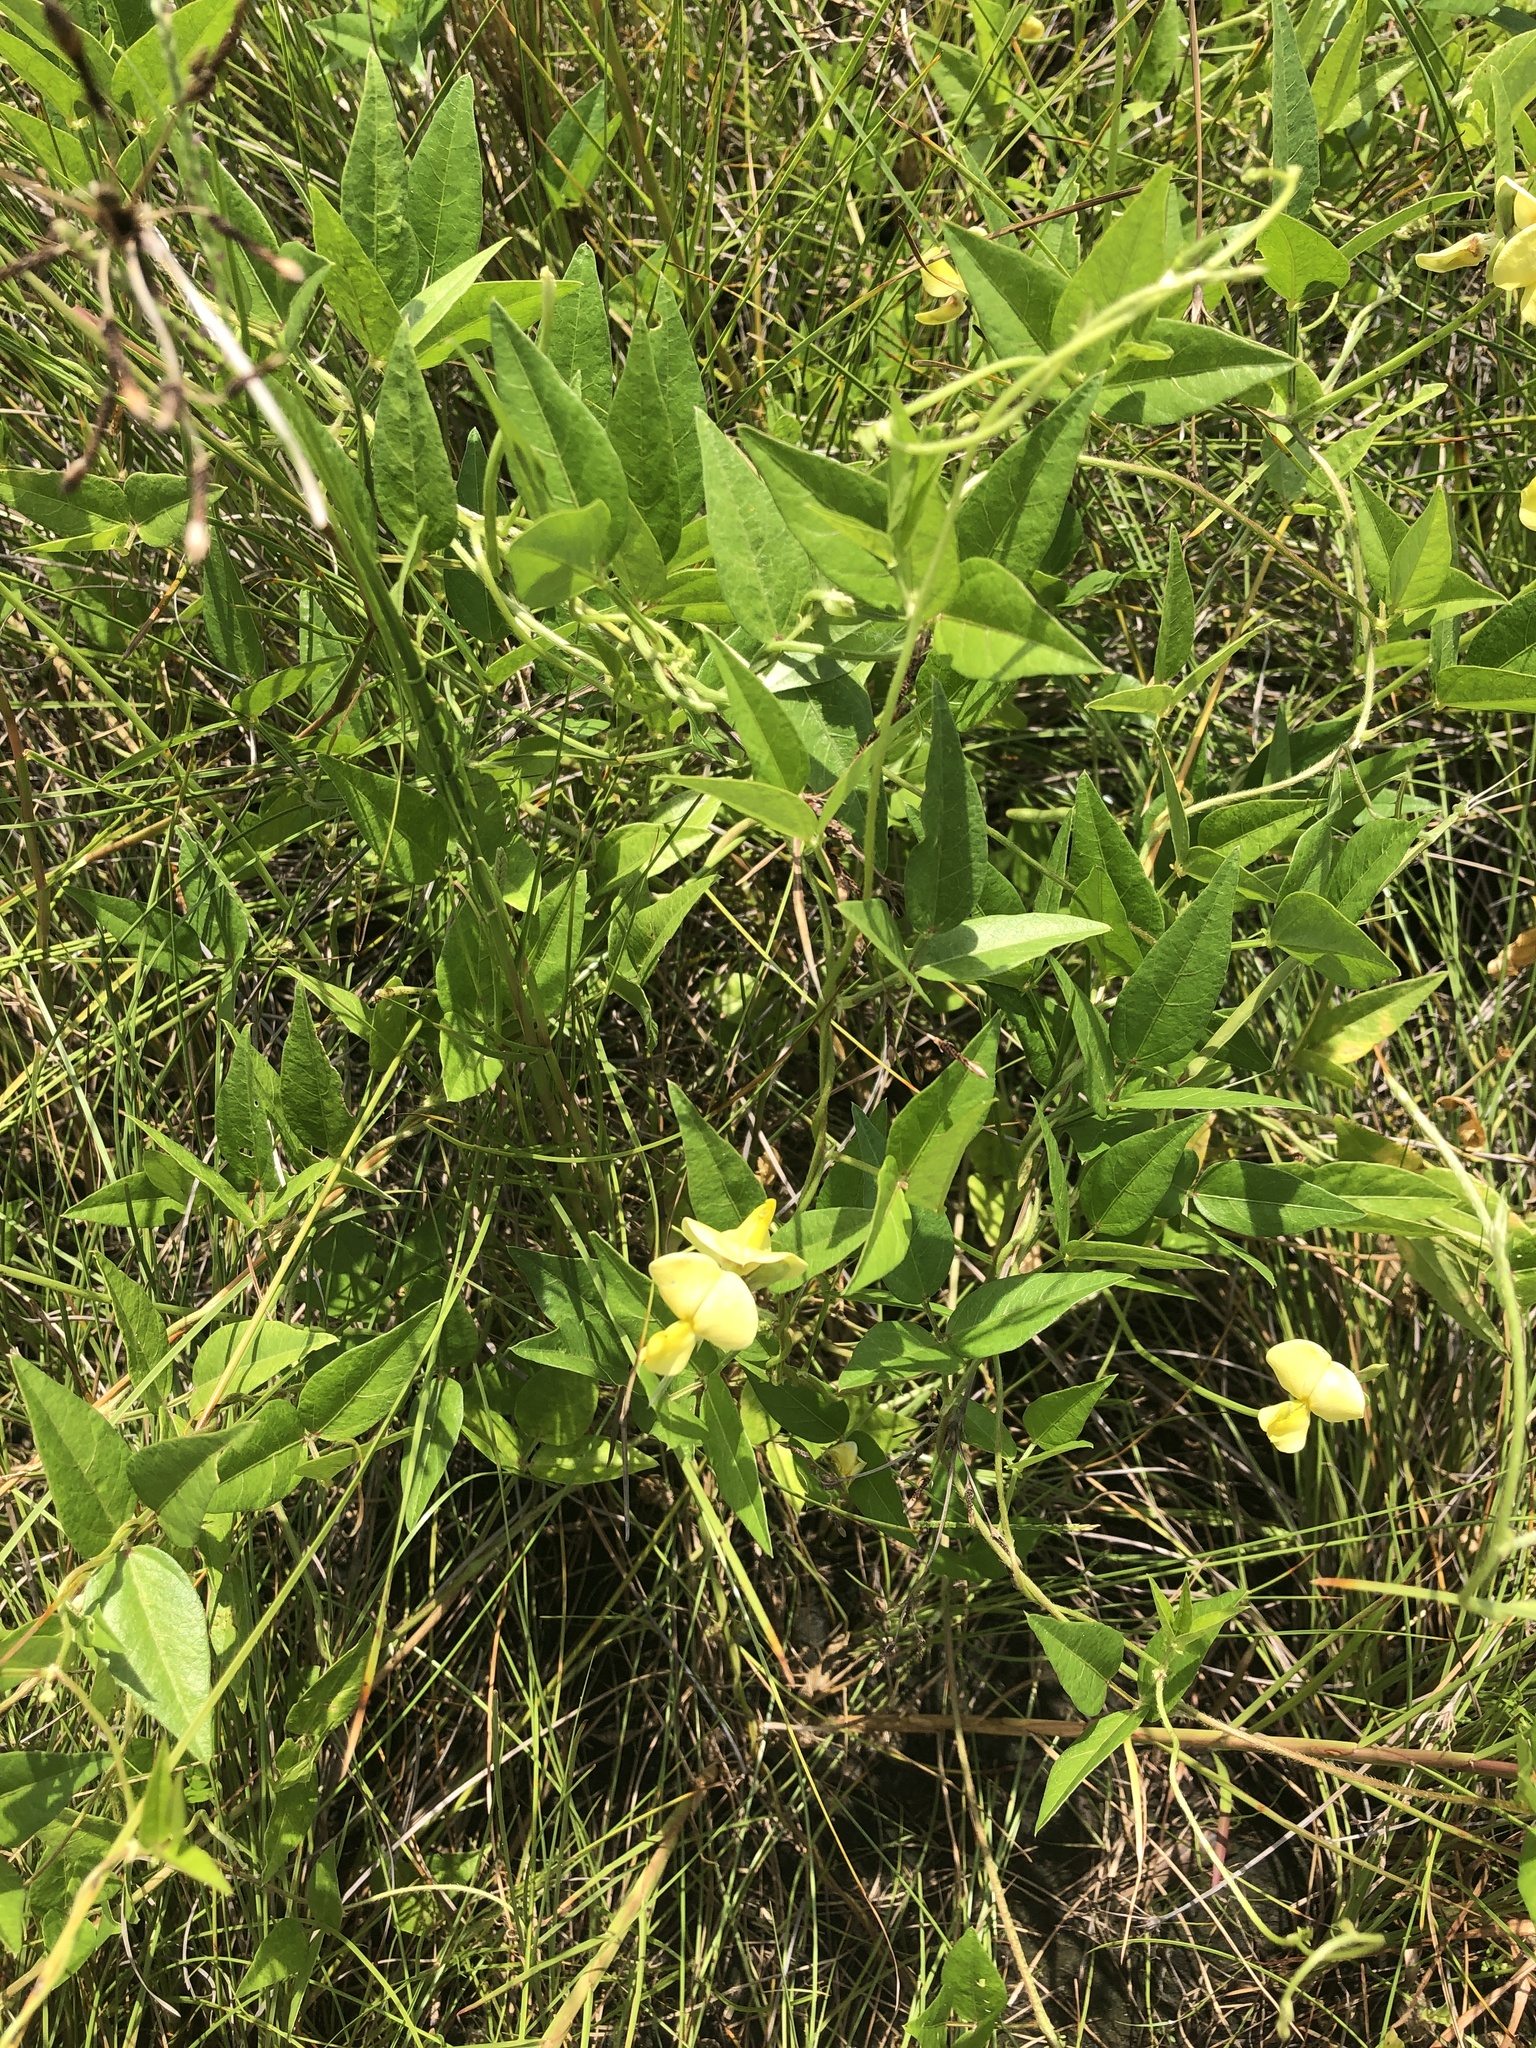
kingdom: Plantae
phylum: Tracheophyta
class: Magnoliopsida
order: Fabales
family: Fabaceae
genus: Vigna
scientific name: Vigna luteola
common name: Hairypod cowpea
